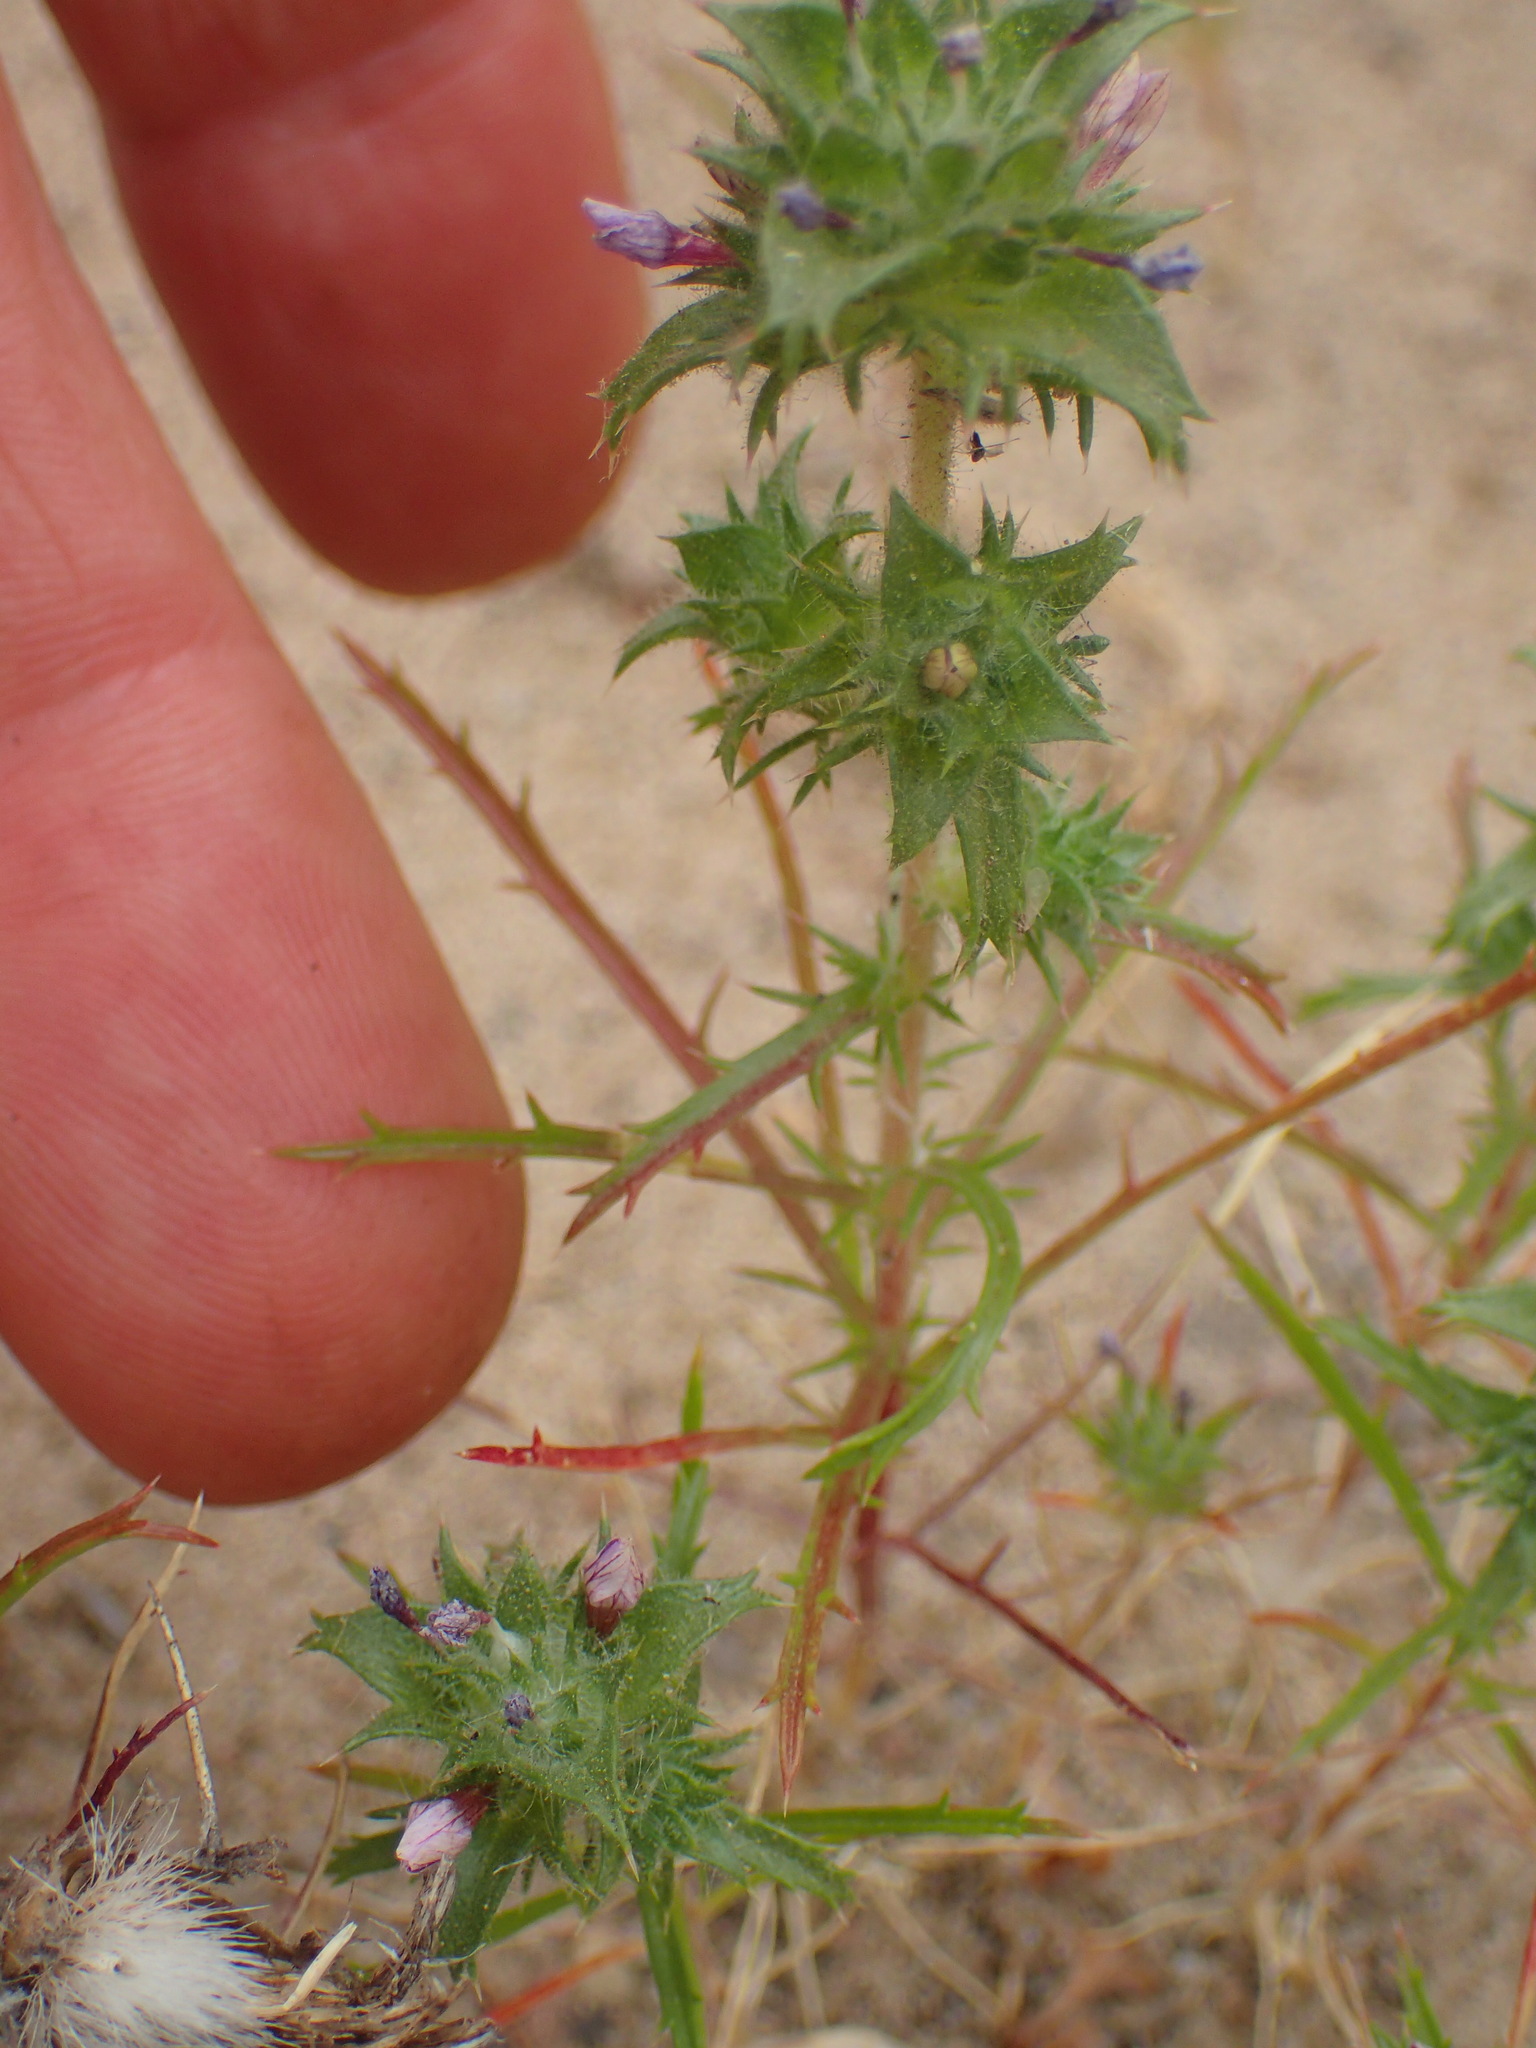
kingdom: Plantae
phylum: Tracheophyta
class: Magnoliopsida
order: Ericales
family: Polemoniaceae
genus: Navarretia
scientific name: Navarretia atractyloides
